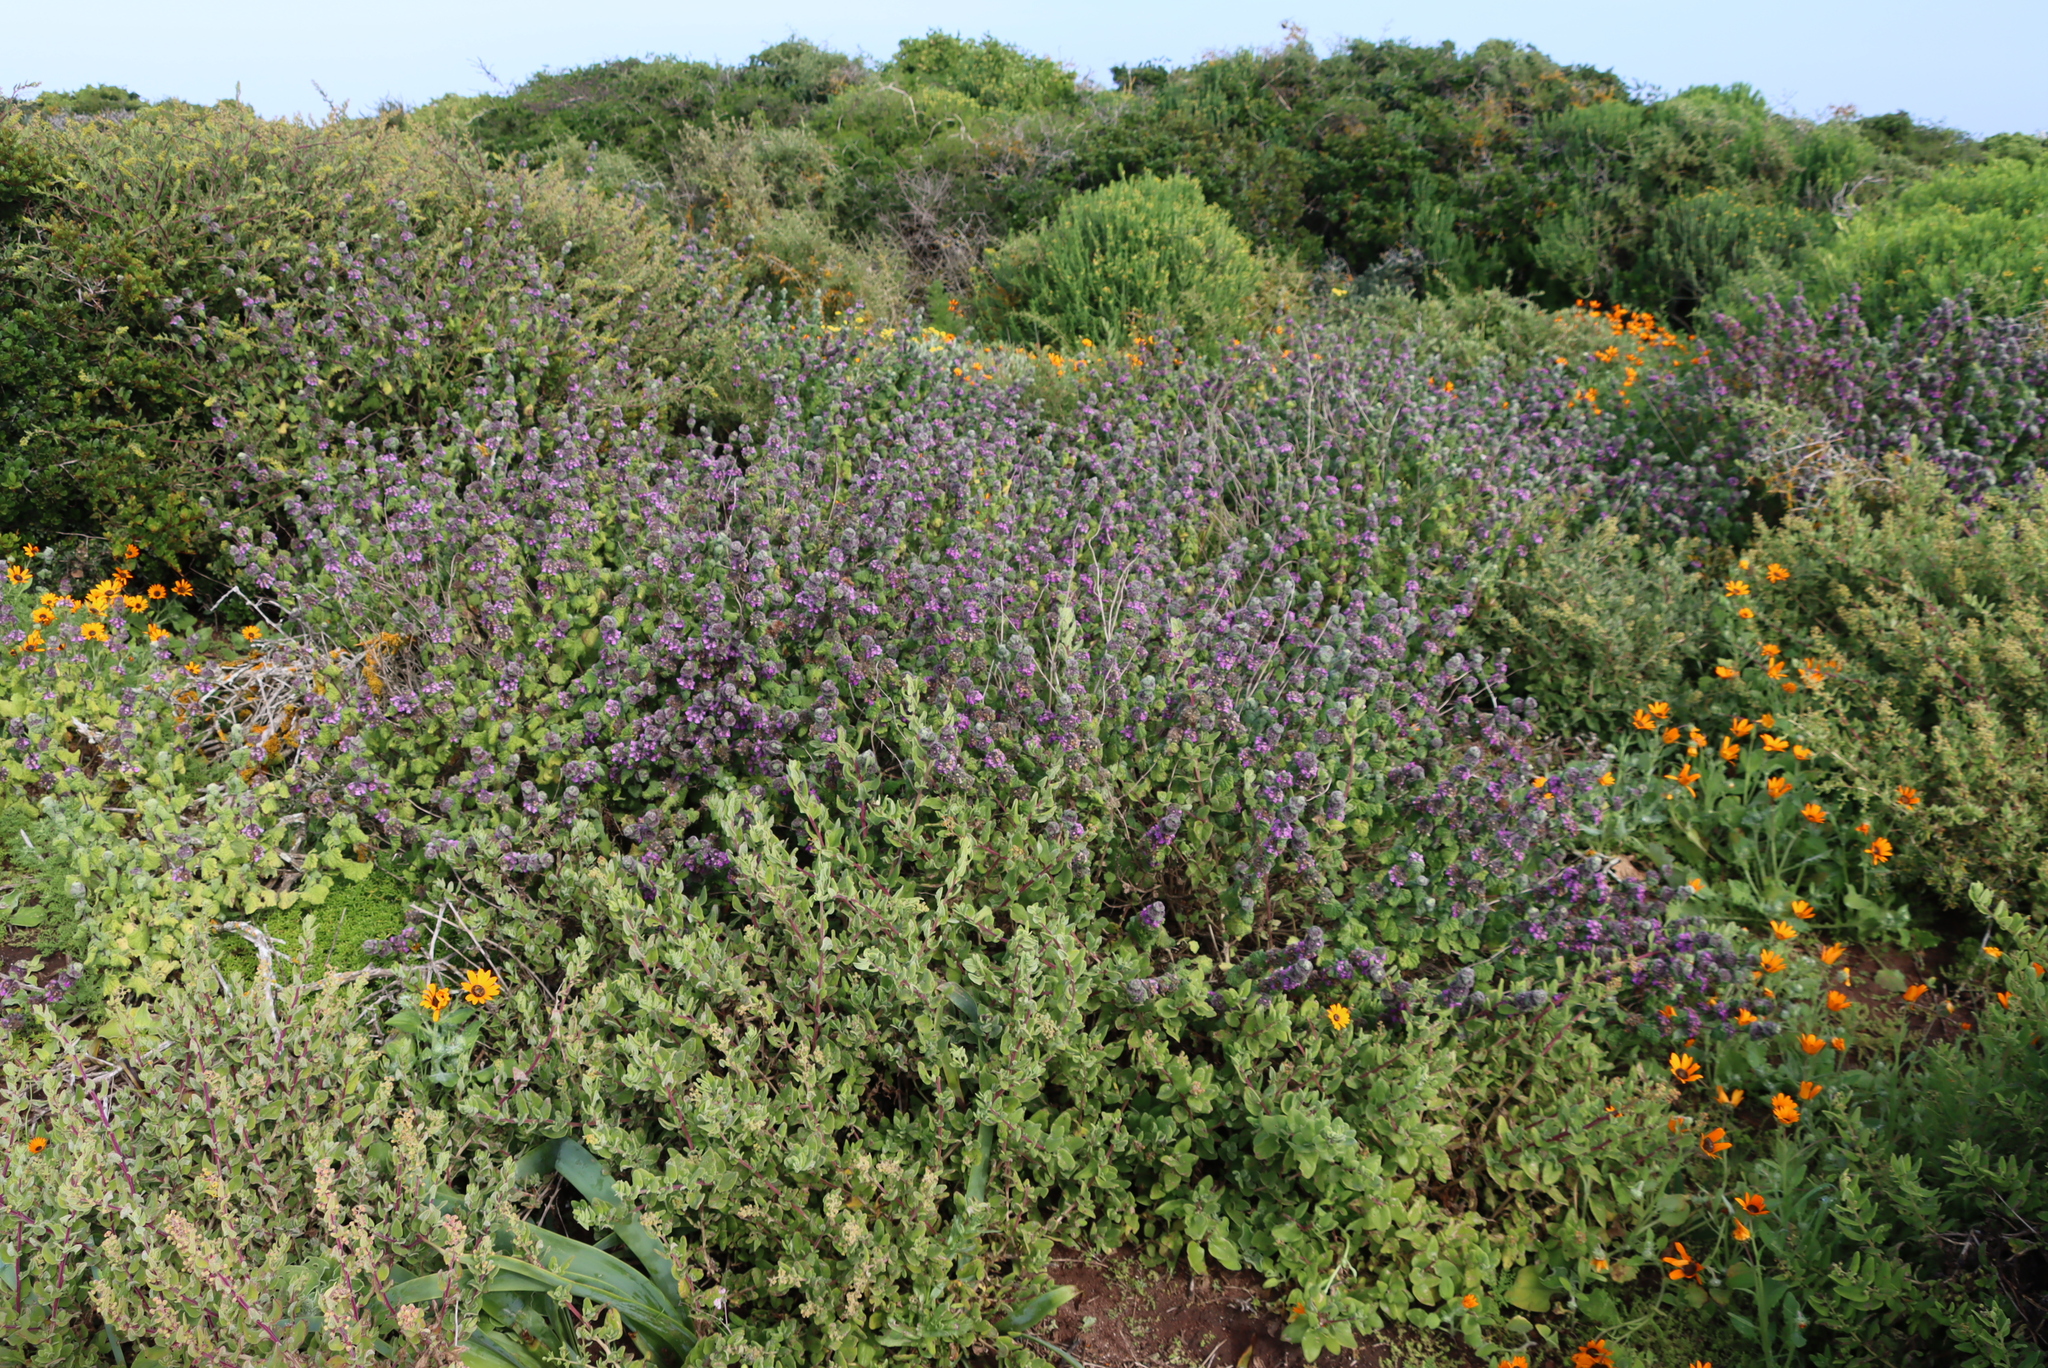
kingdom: Plantae
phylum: Tracheophyta
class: Magnoliopsida
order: Lamiales
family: Lamiaceae
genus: Pseudodictamnus
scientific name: Pseudodictamnus africanus
